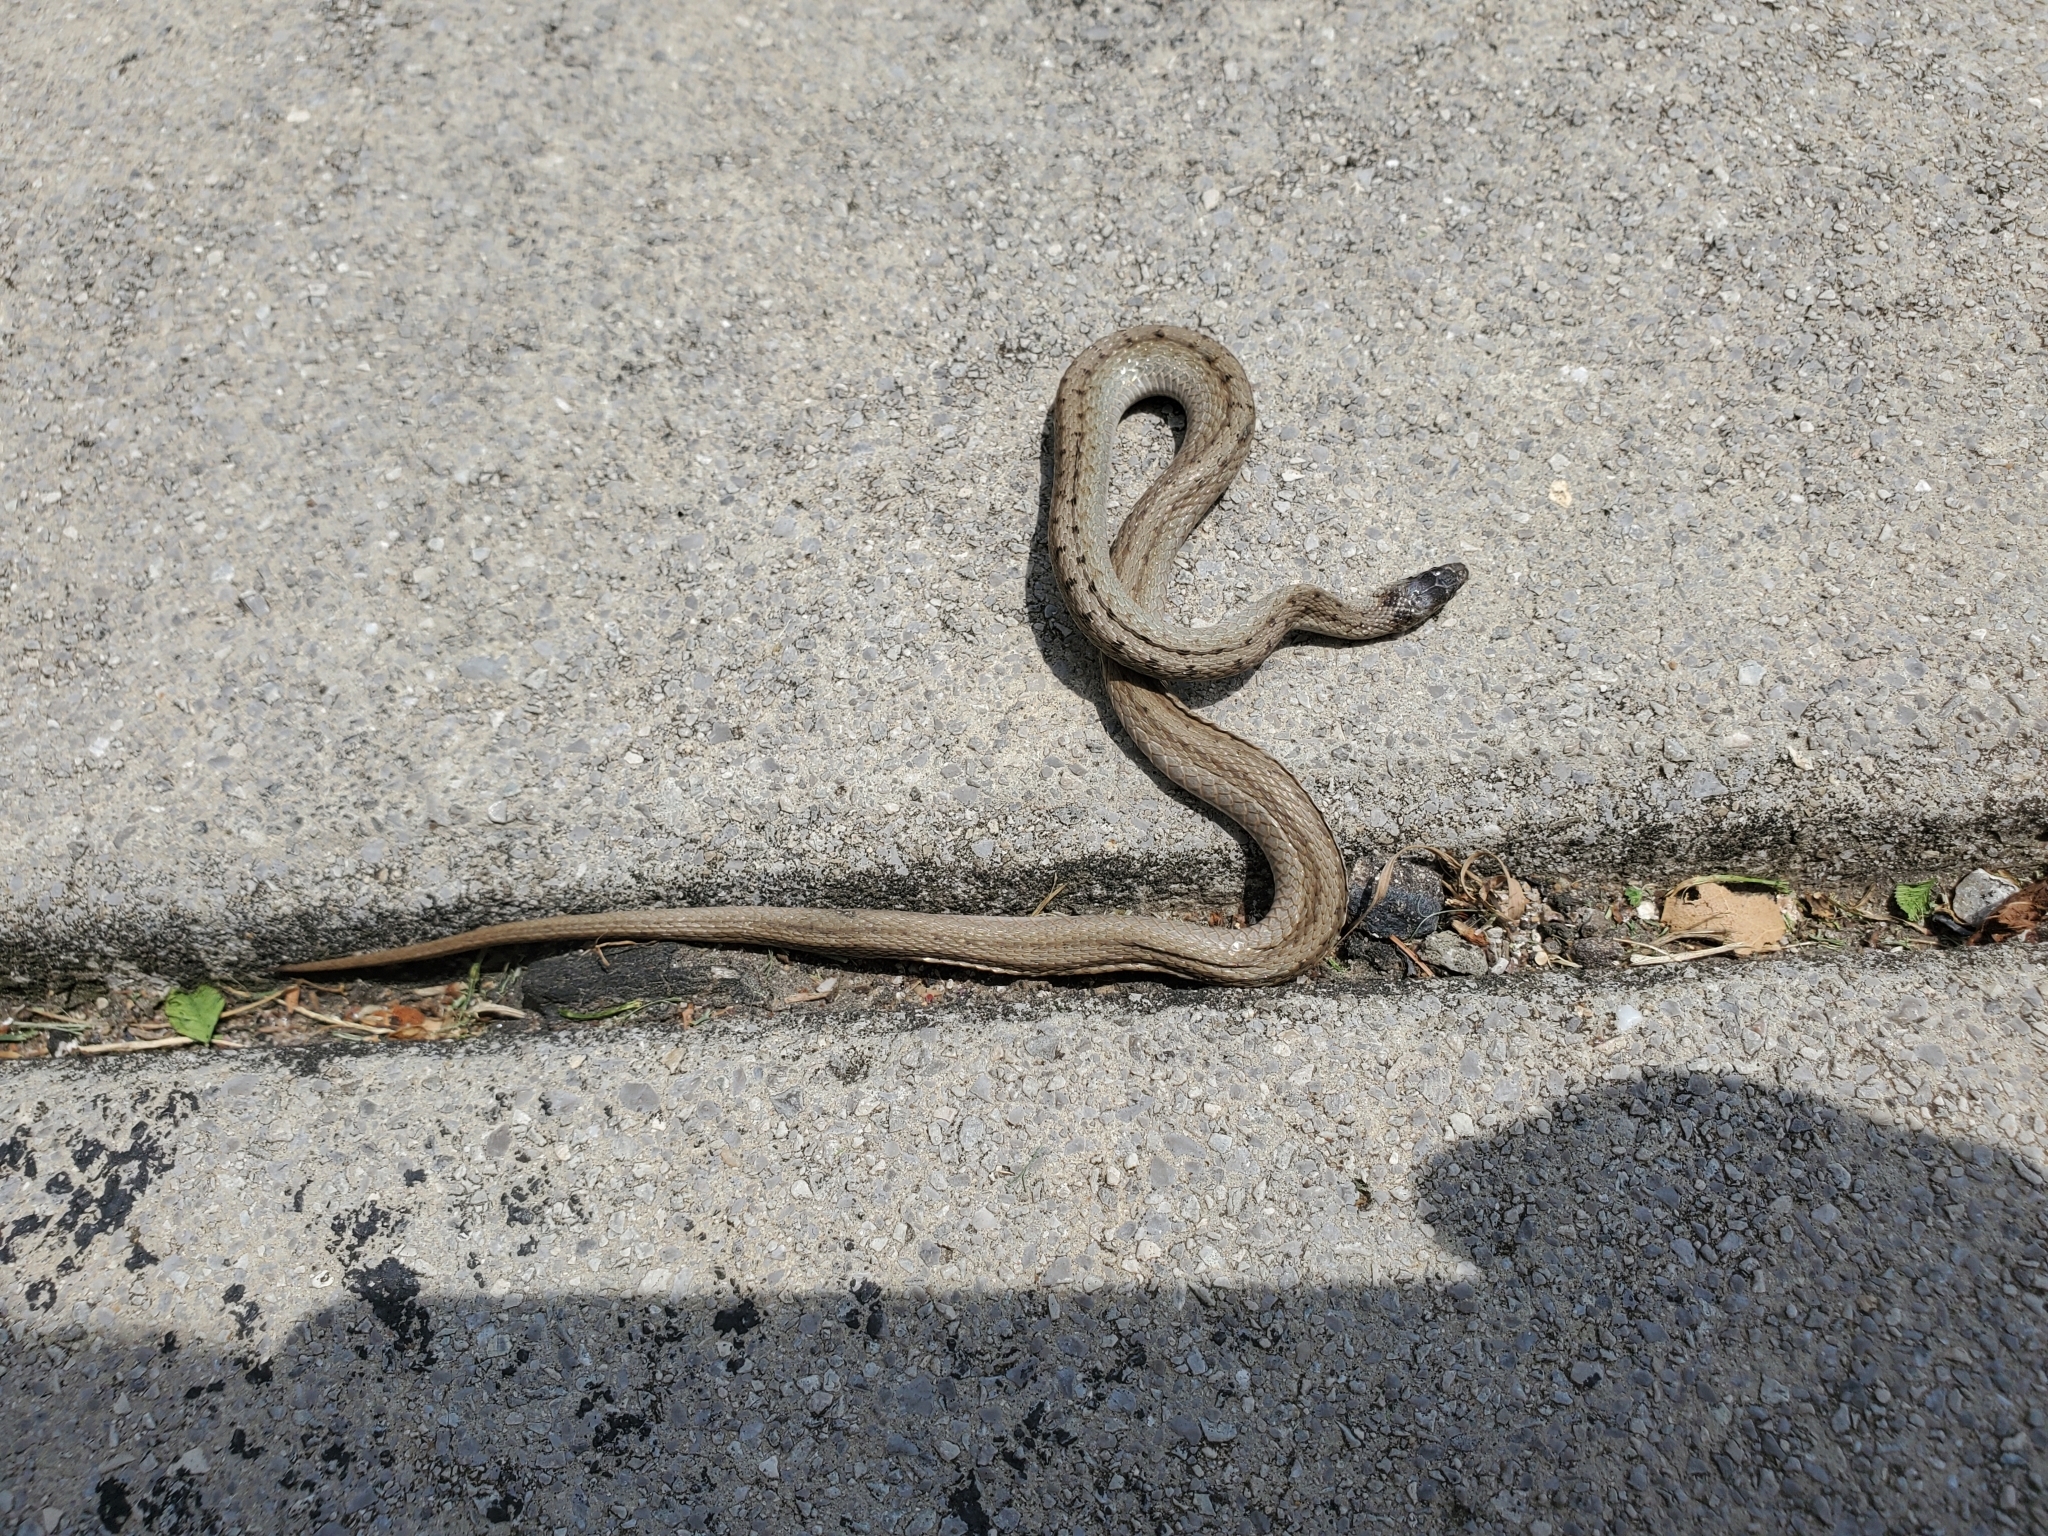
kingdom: Animalia
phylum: Chordata
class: Squamata
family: Colubridae
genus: Storeria
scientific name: Storeria dekayi
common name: (dekay’s) brown snake
